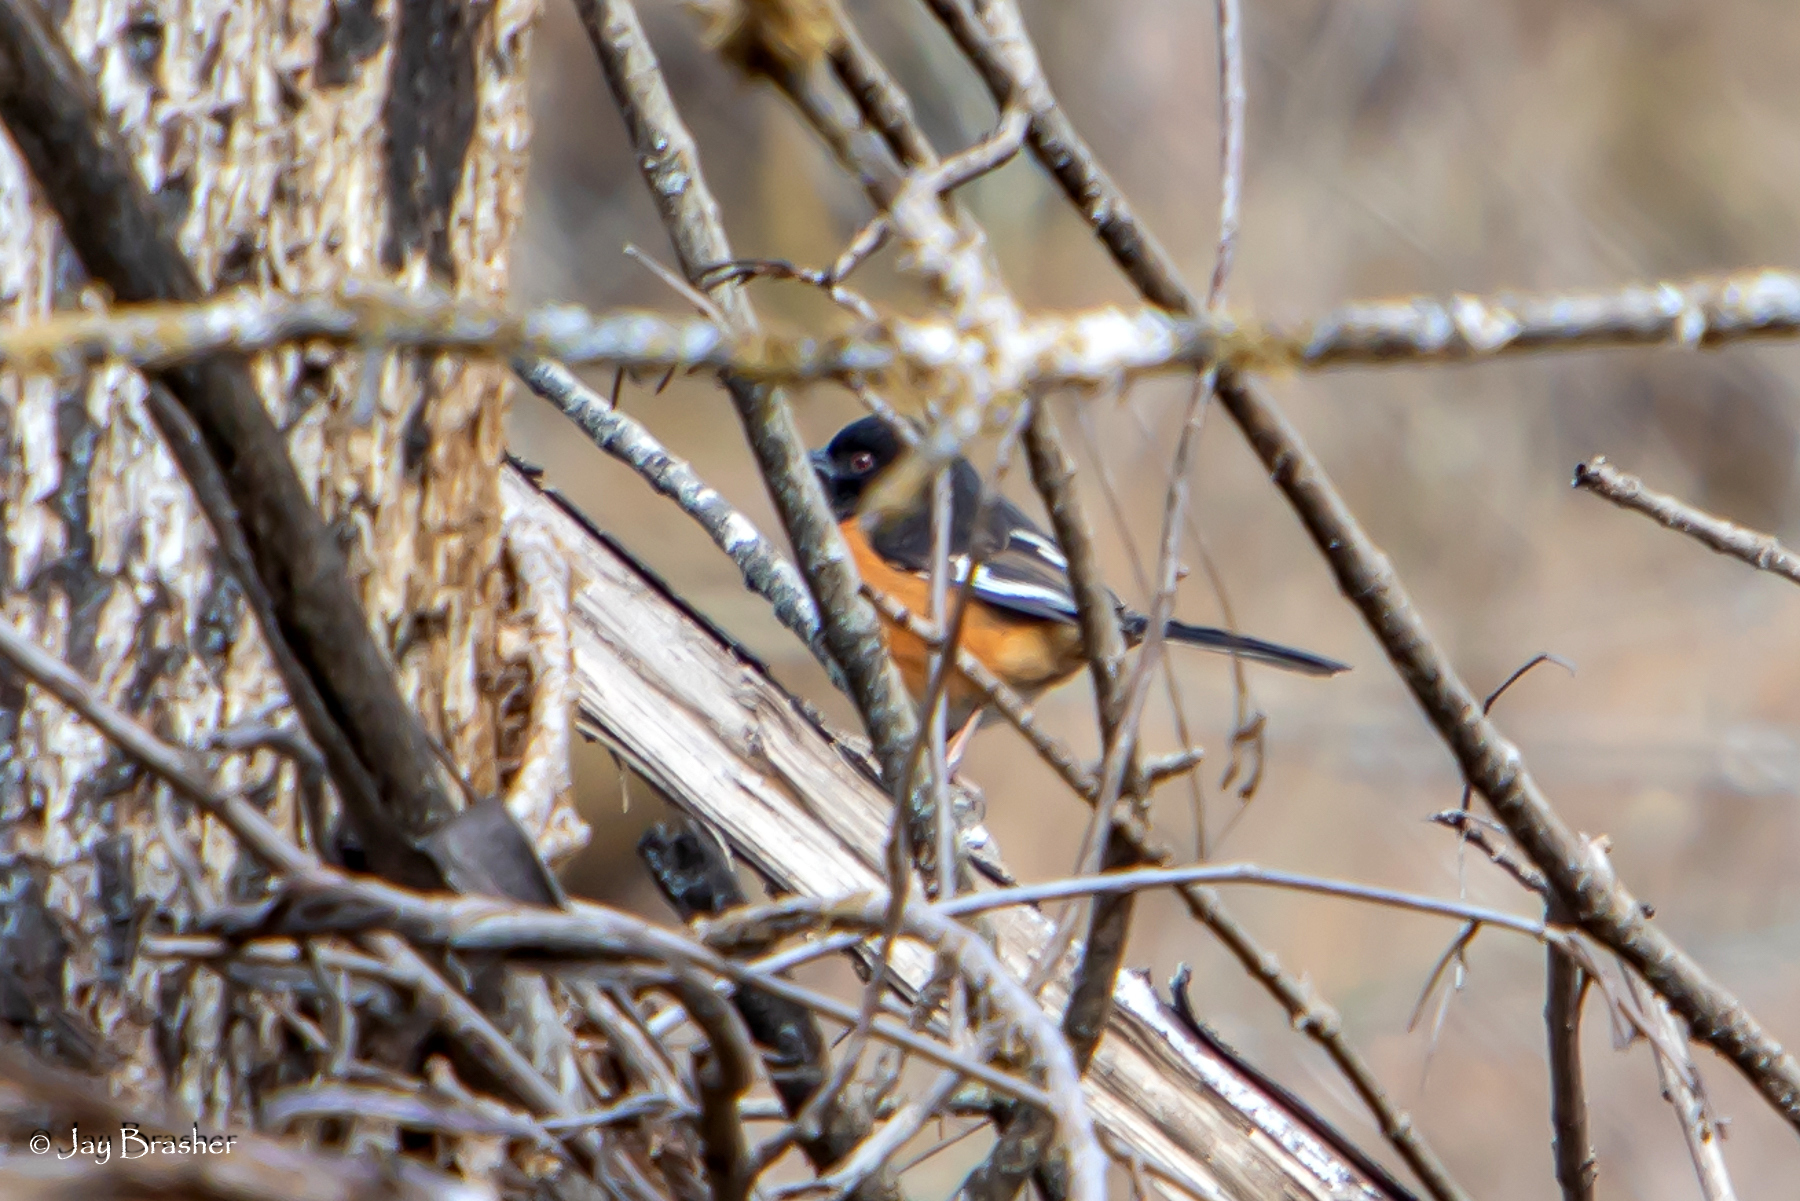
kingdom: Animalia
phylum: Chordata
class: Aves
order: Passeriformes
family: Passerellidae
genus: Pipilo
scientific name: Pipilo erythrophthalmus
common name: Eastern towhee
